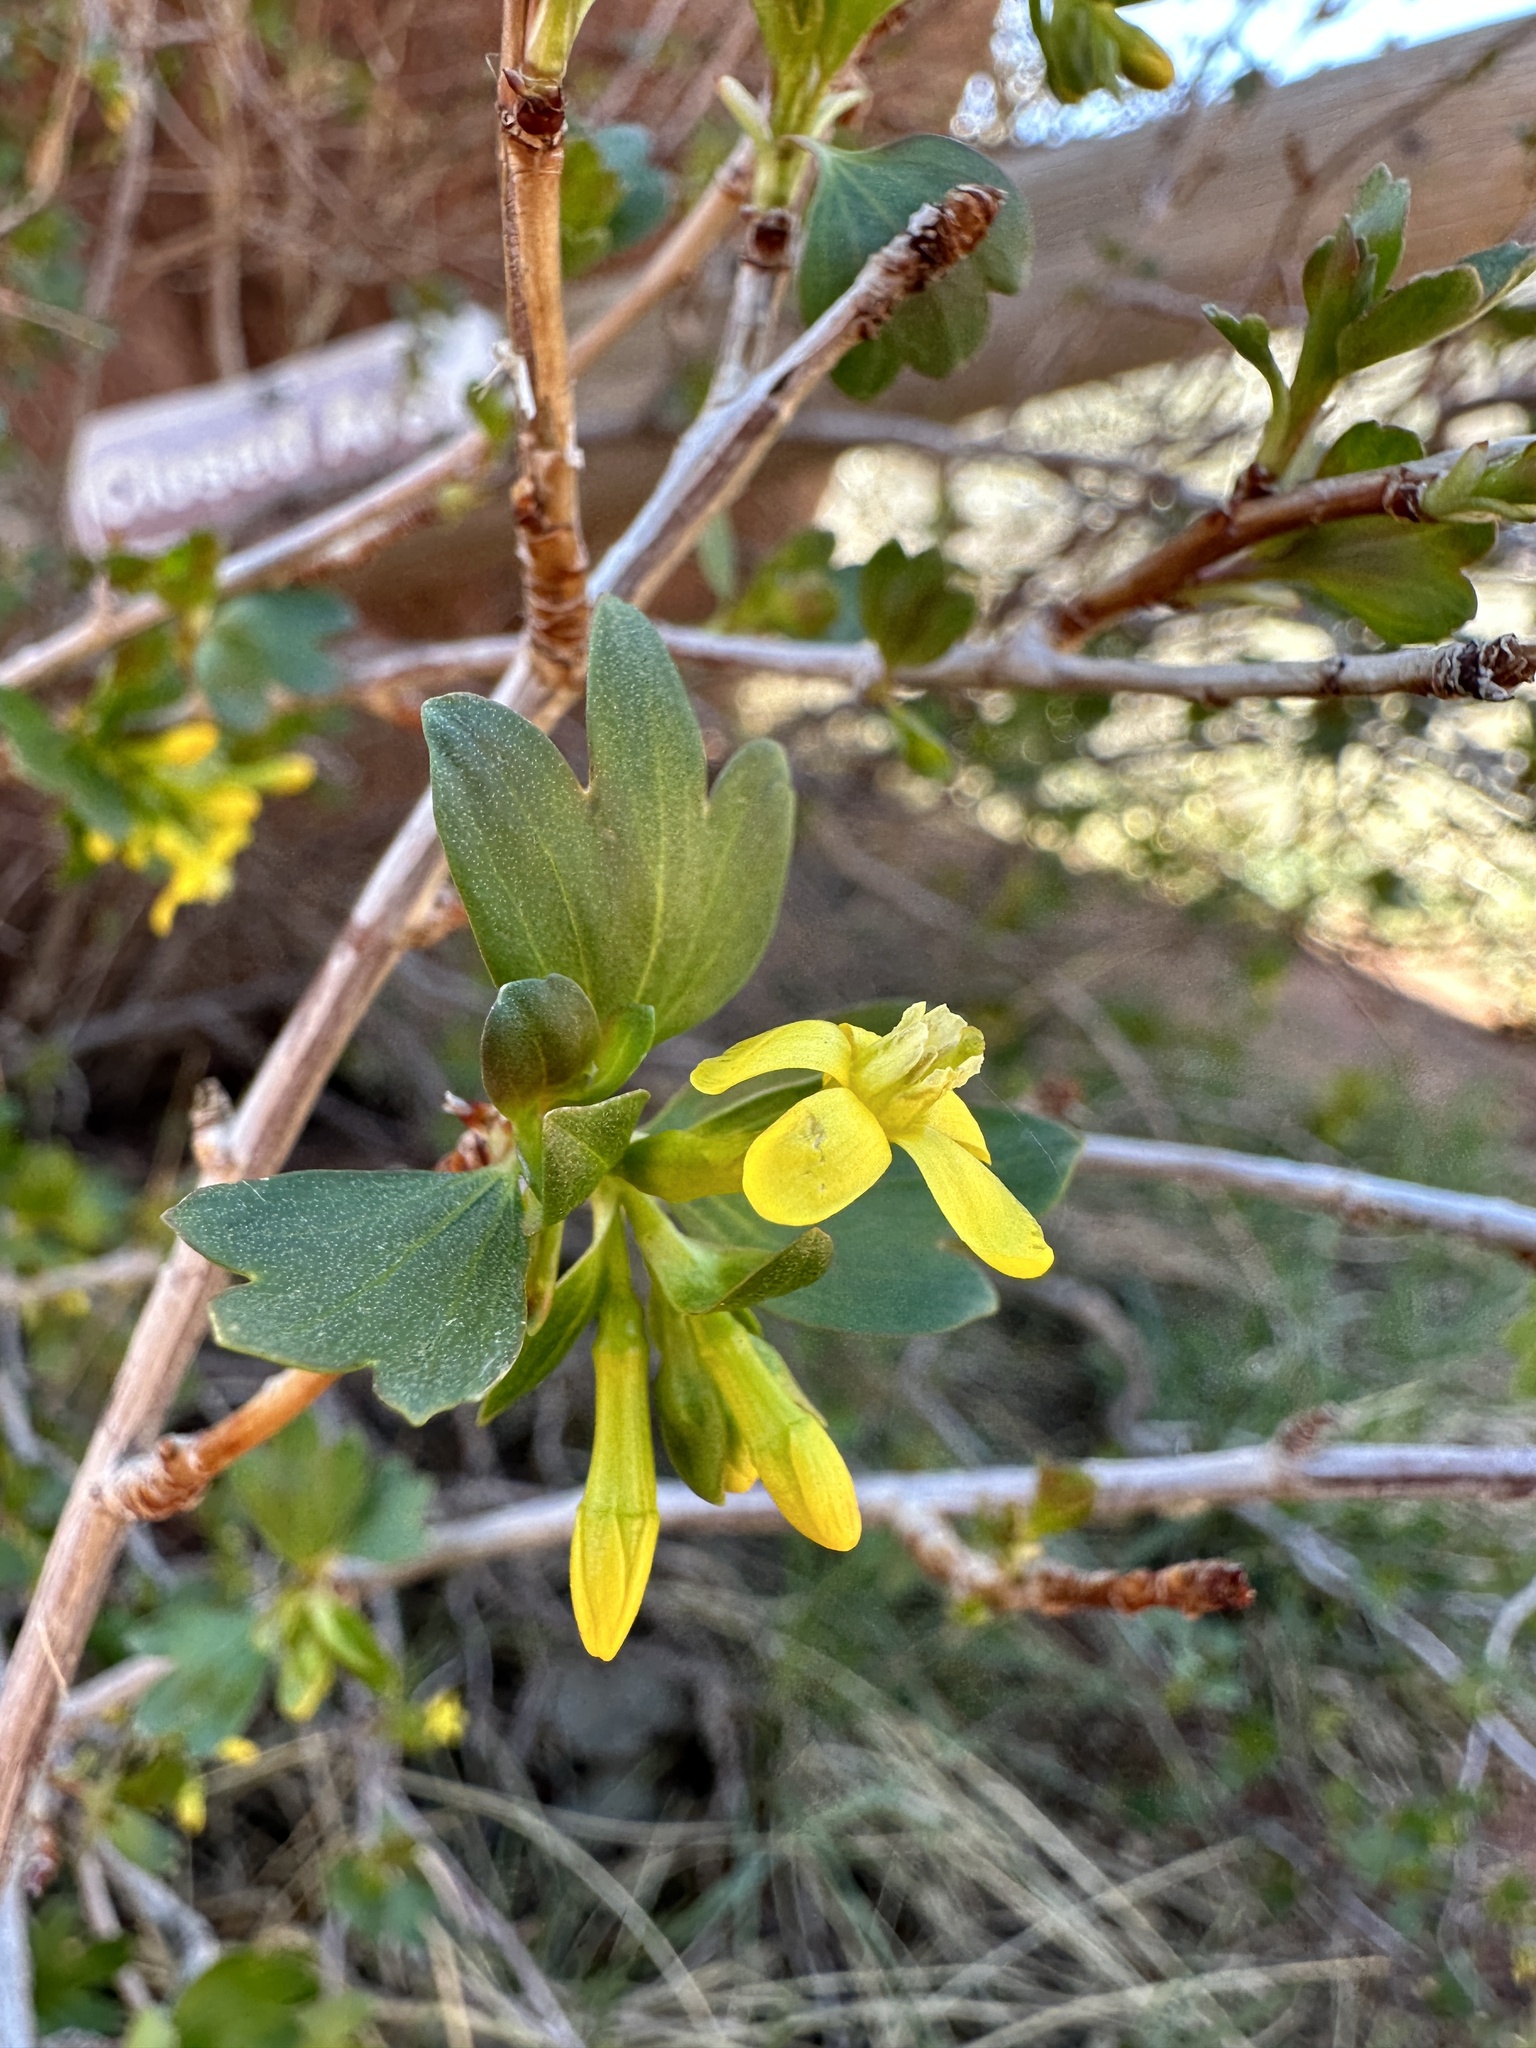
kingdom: Plantae
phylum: Tracheophyta
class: Magnoliopsida
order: Saxifragales
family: Grossulariaceae
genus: Ribes
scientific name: Ribes aureum
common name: Golden currant
